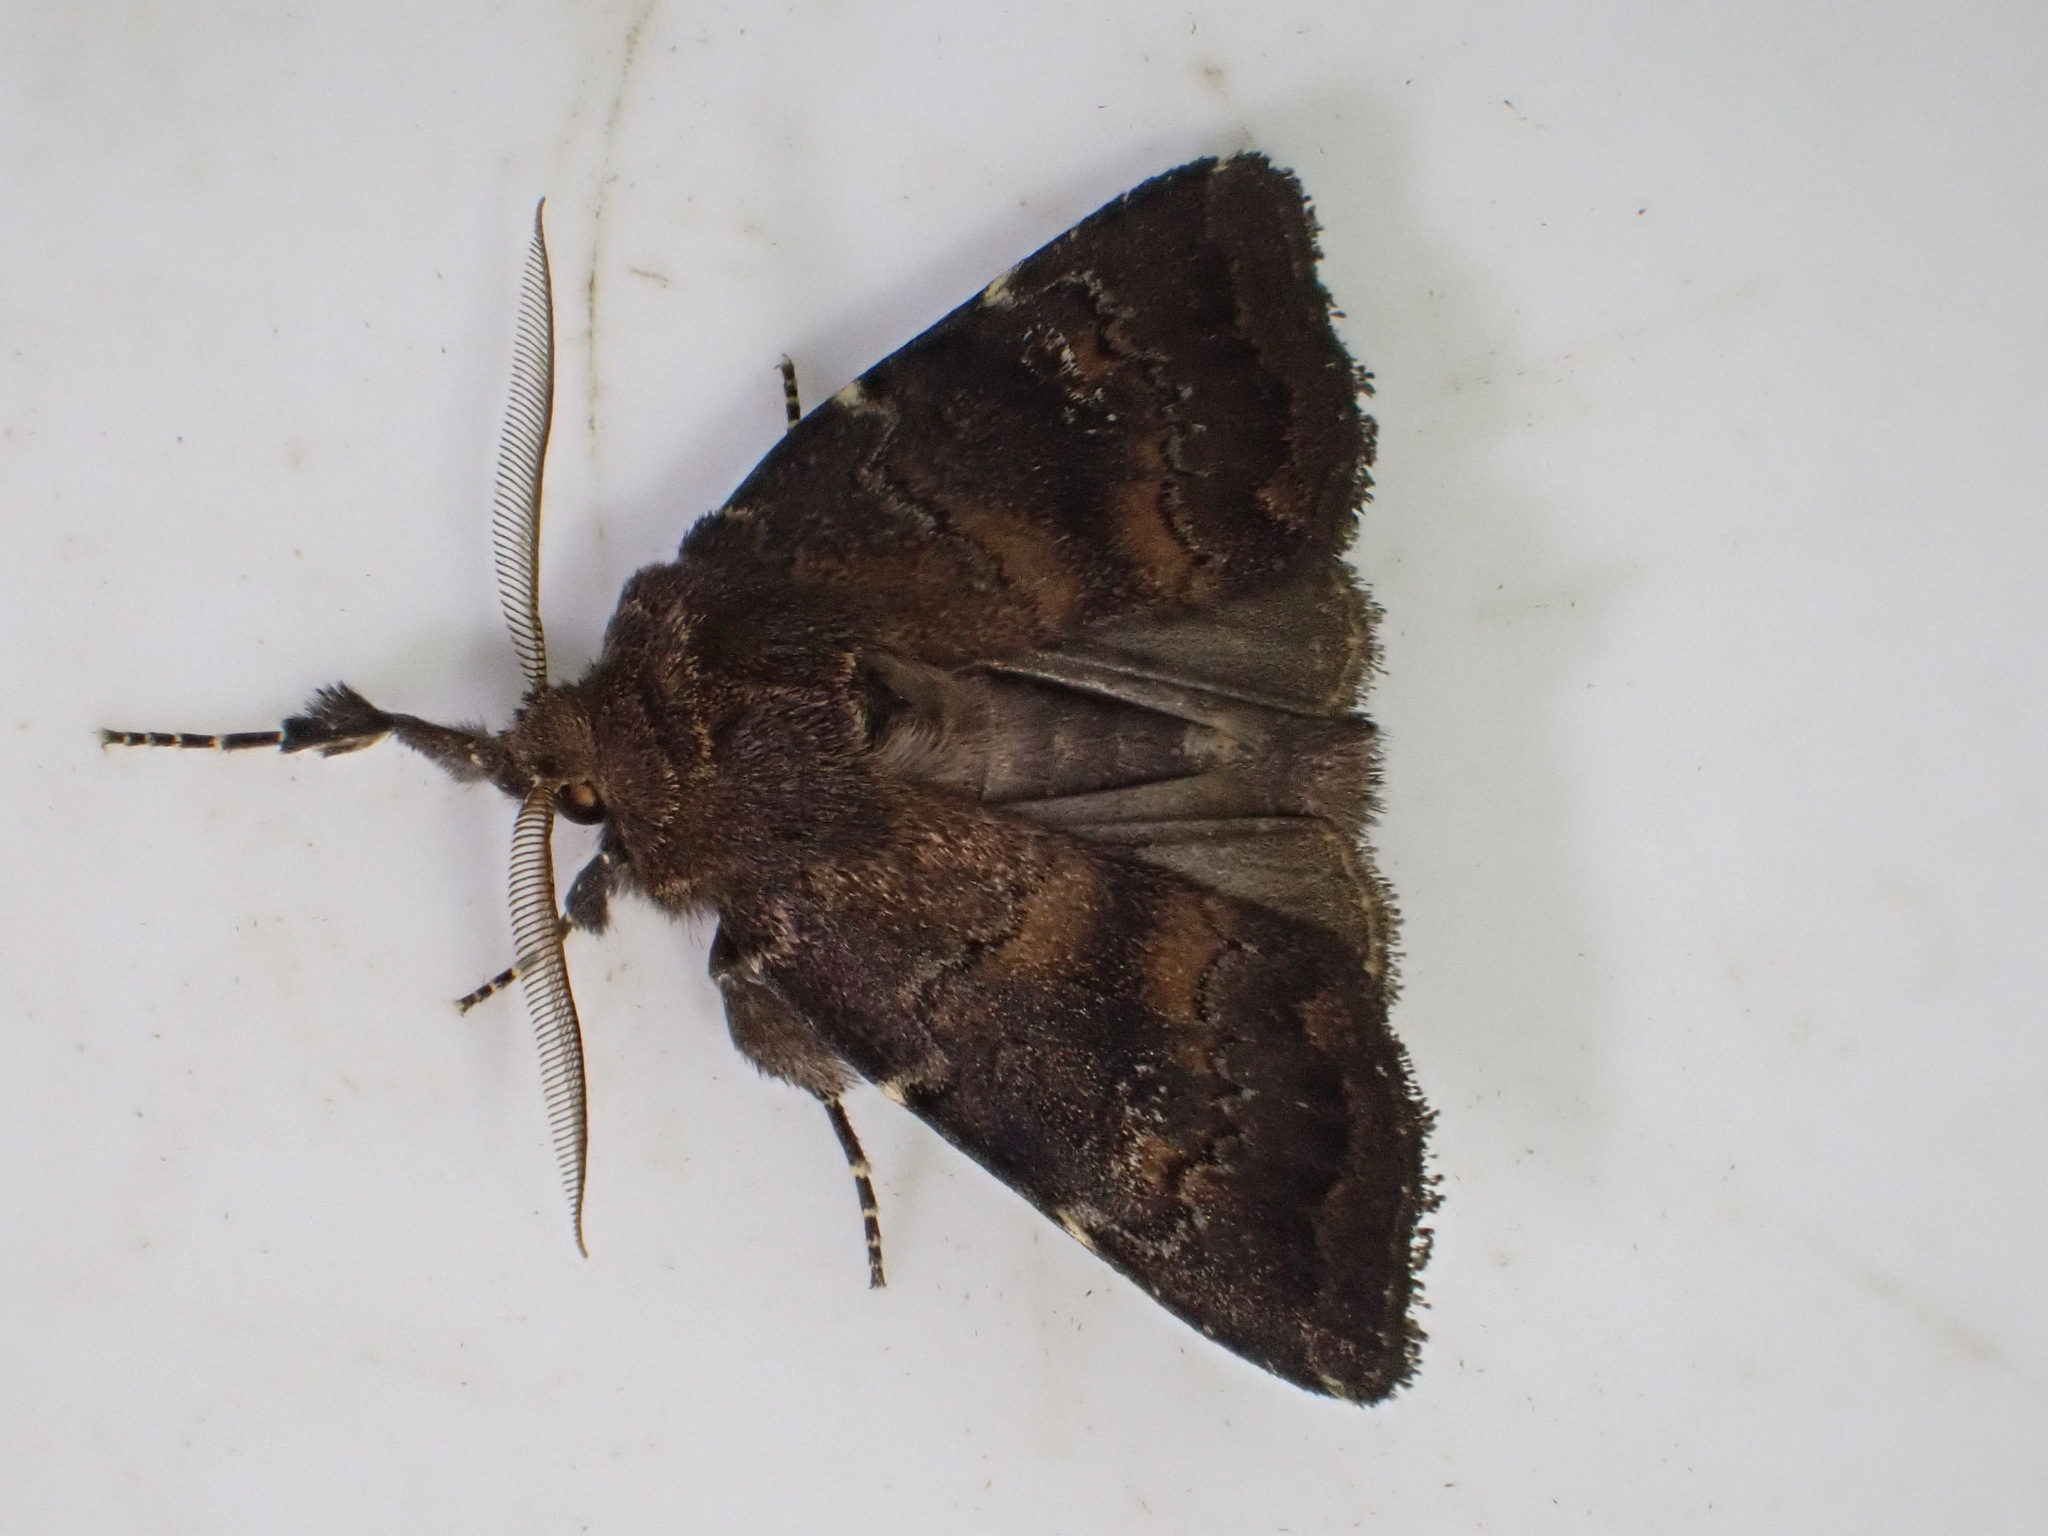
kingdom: Animalia
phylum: Arthropoda
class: Insecta
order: Lepidoptera
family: Noctuidae
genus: Charanyca
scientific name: Charanyca ferruginea
